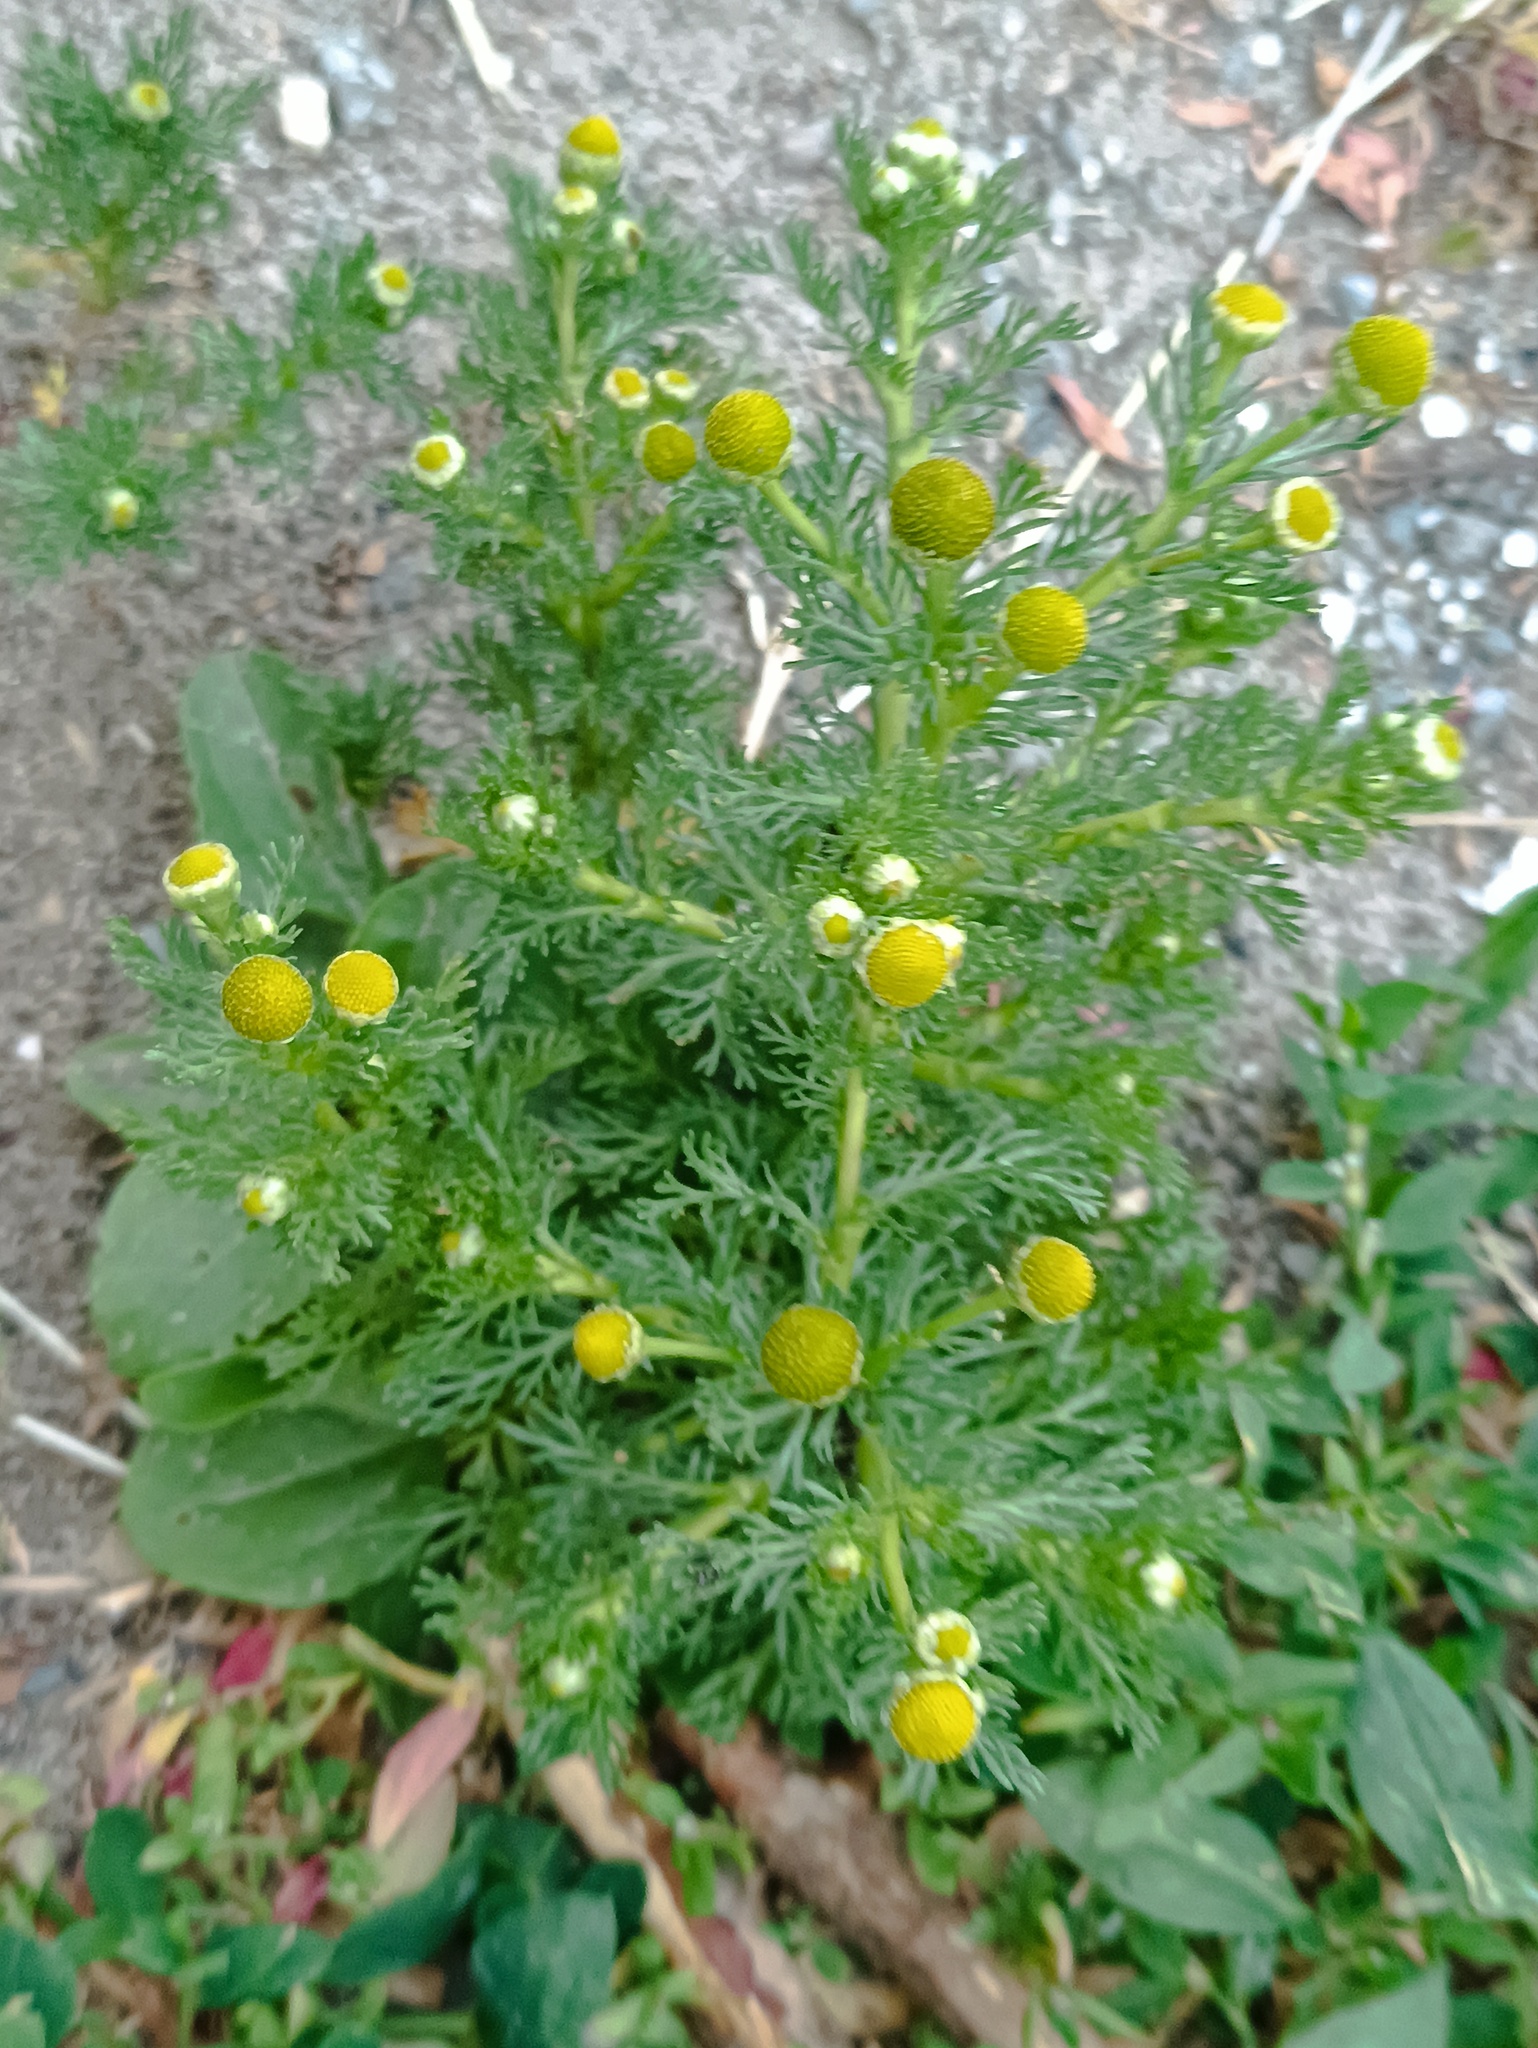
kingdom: Plantae
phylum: Tracheophyta
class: Magnoliopsida
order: Asterales
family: Asteraceae
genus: Matricaria
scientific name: Matricaria discoidea
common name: Disc mayweed
